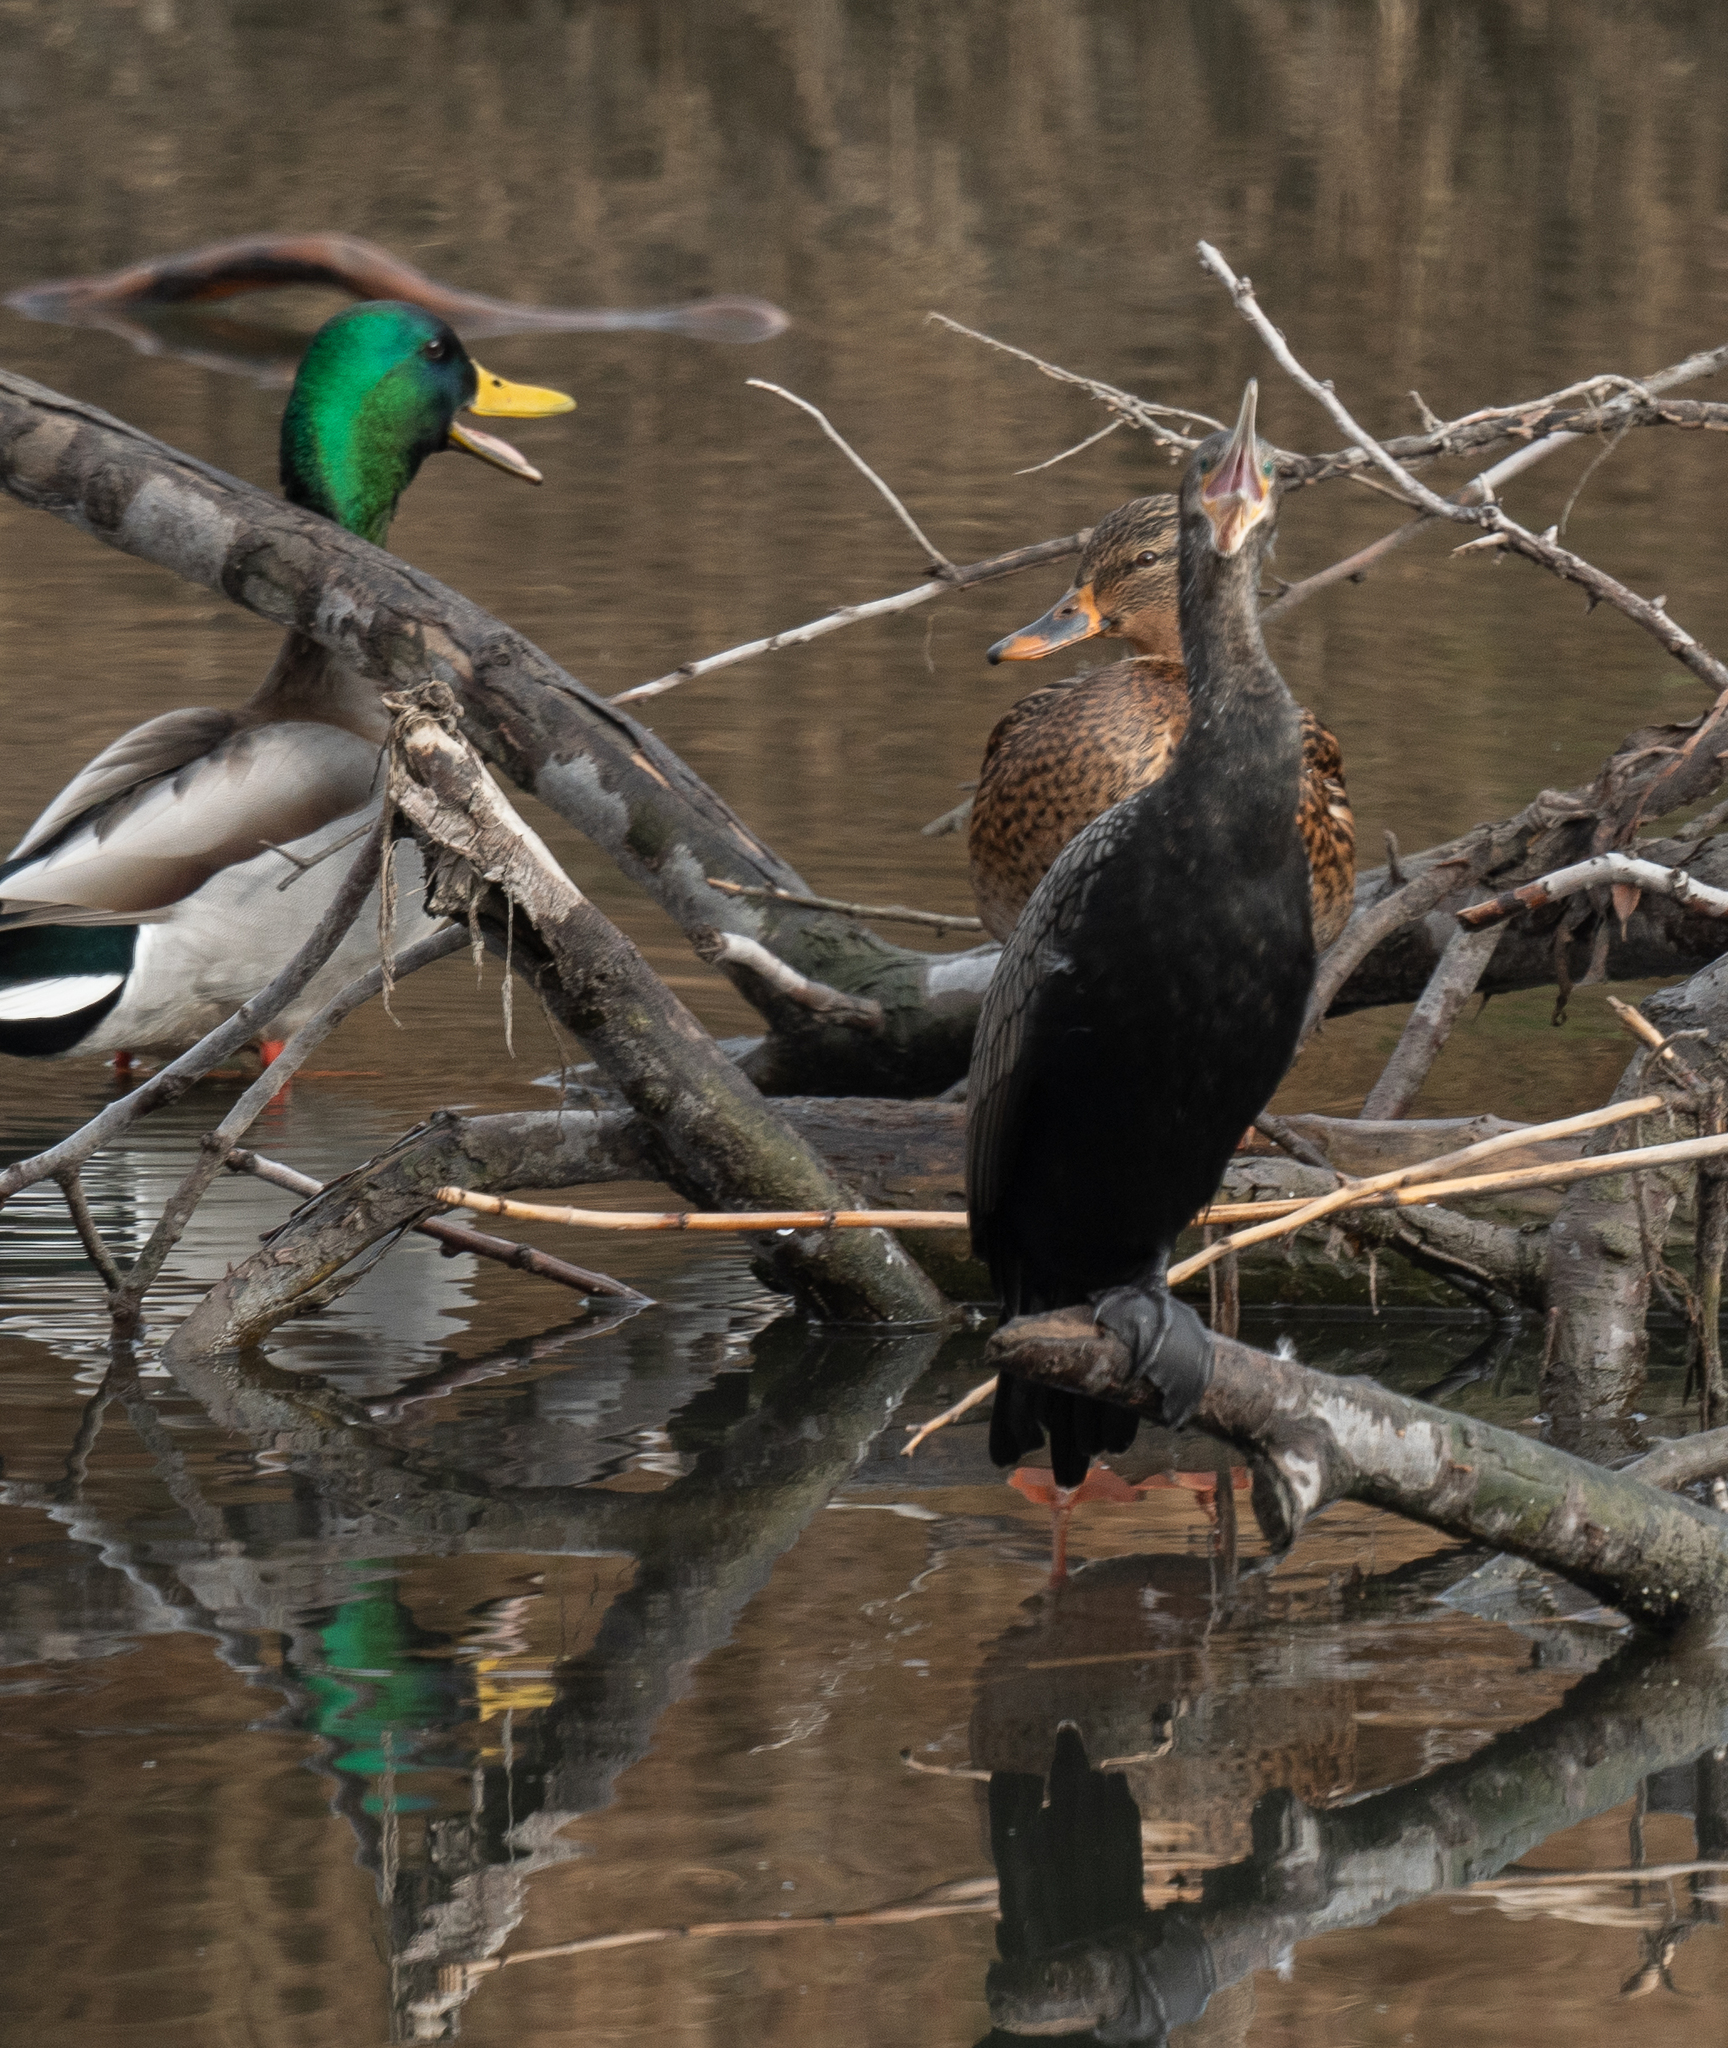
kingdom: Animalia
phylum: Chordata
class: Aves
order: Suliformes
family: Phalacrocoracidae
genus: Phalacrocorax
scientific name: Phalacrocorax brasilianus
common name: Neotropic cormorant
